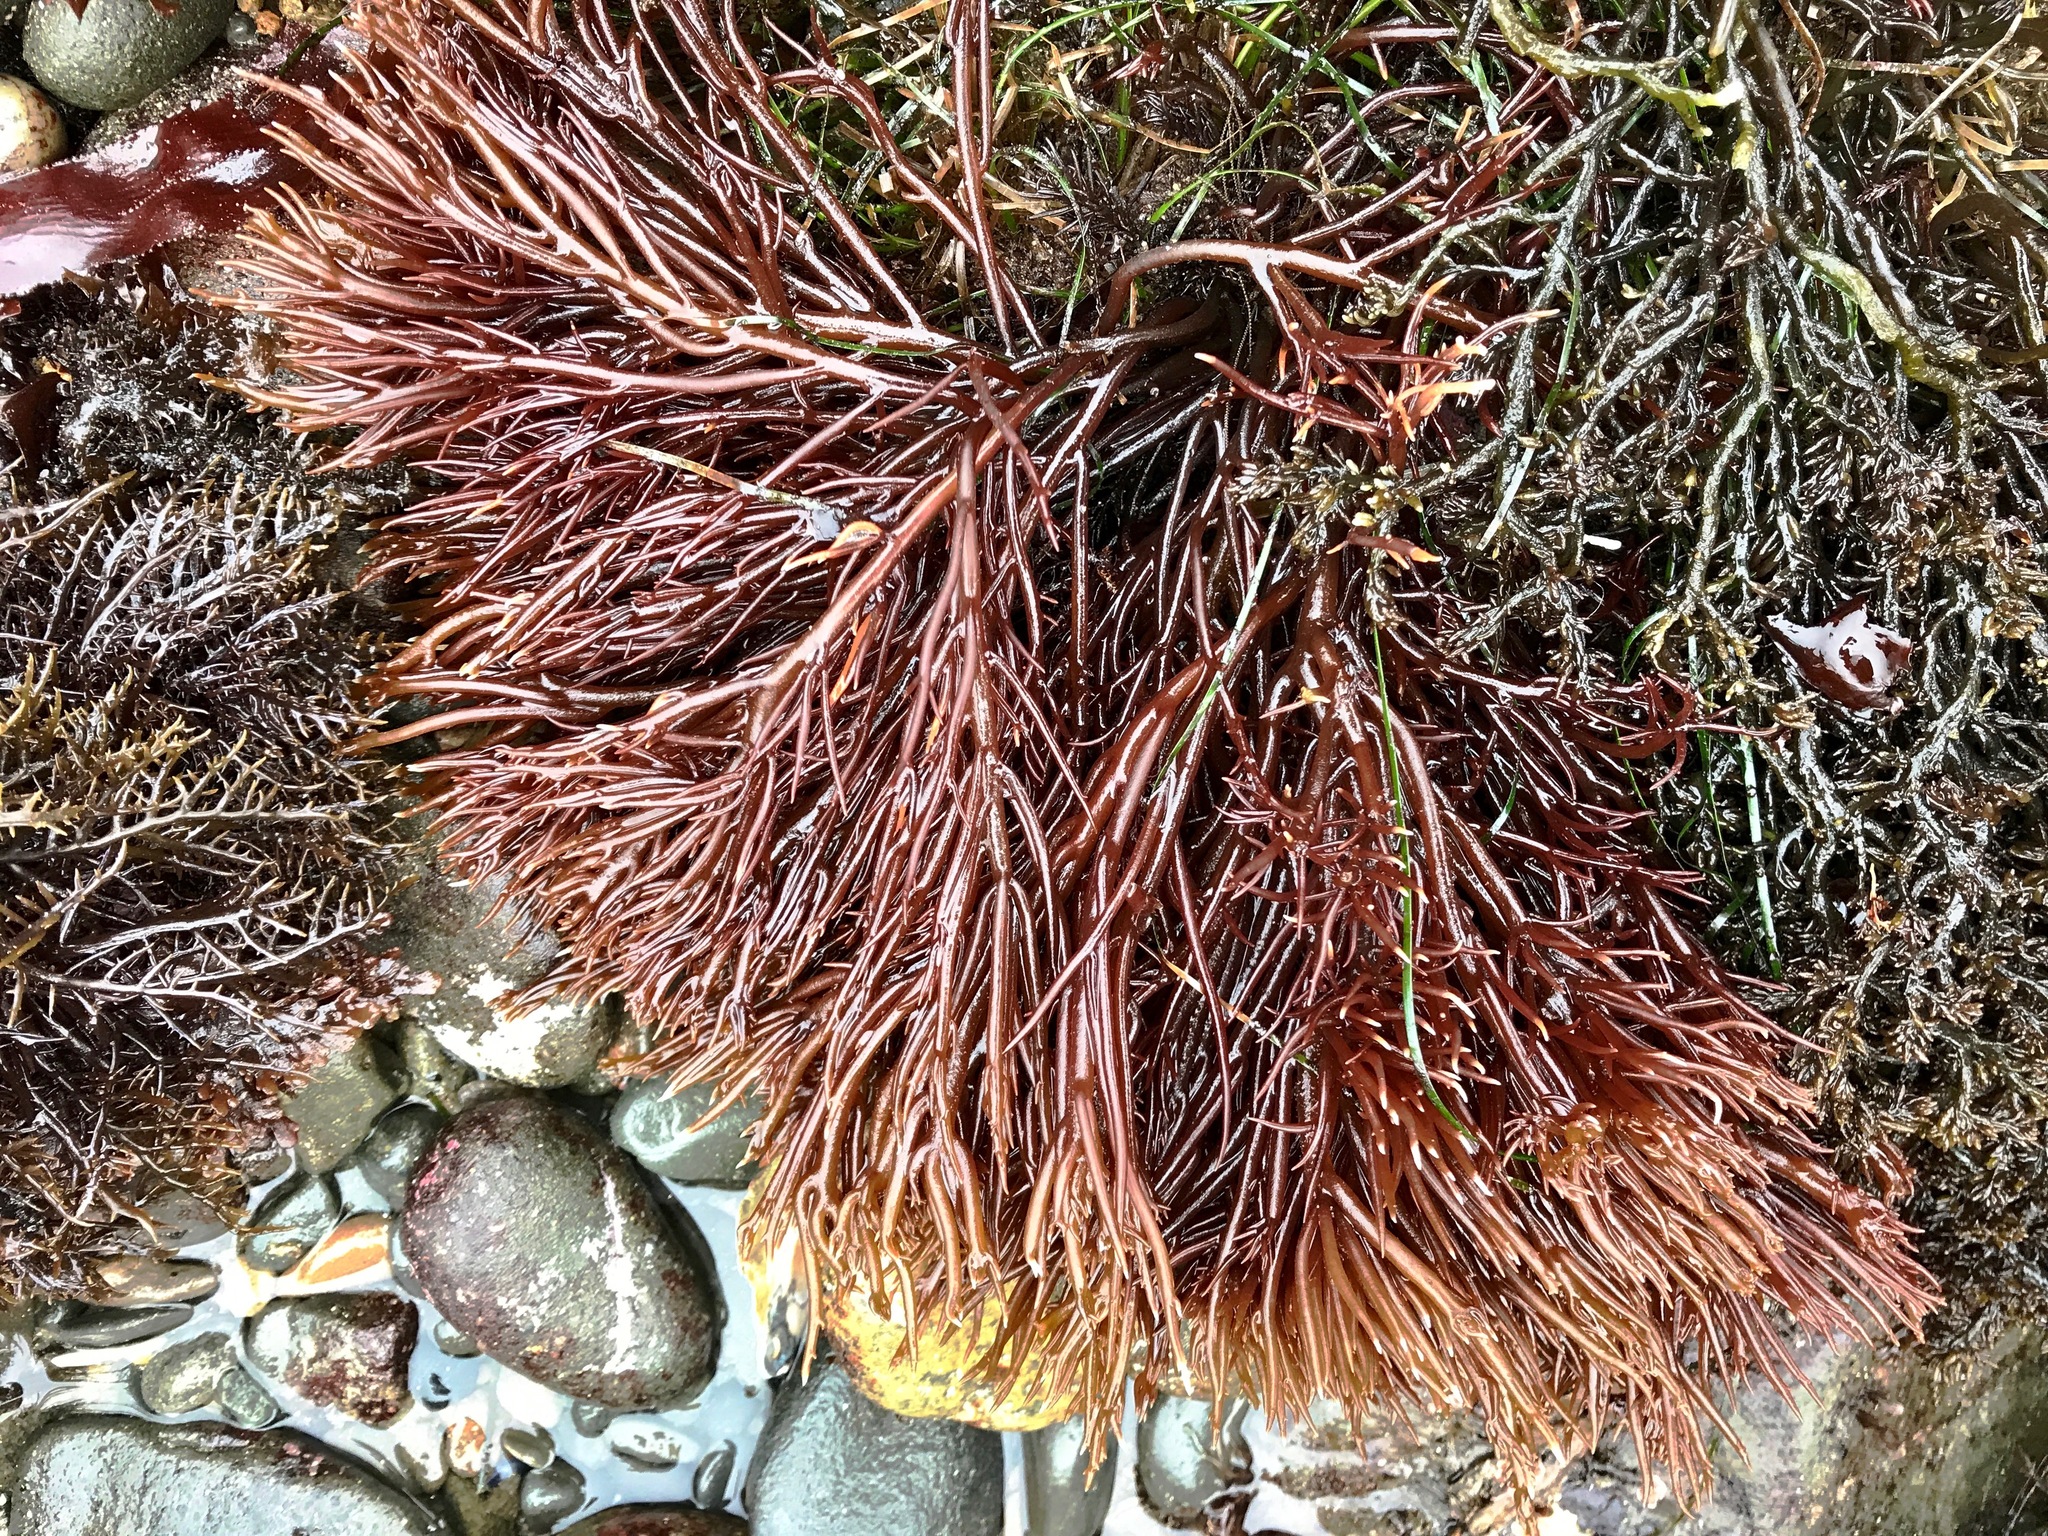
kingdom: Plantae
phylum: Rhodophyta
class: Florideophyceae
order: Gigartinales
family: Solieriaceae
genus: Sarcodiotheca
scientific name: Sarcodiotheca gaudichaudii
